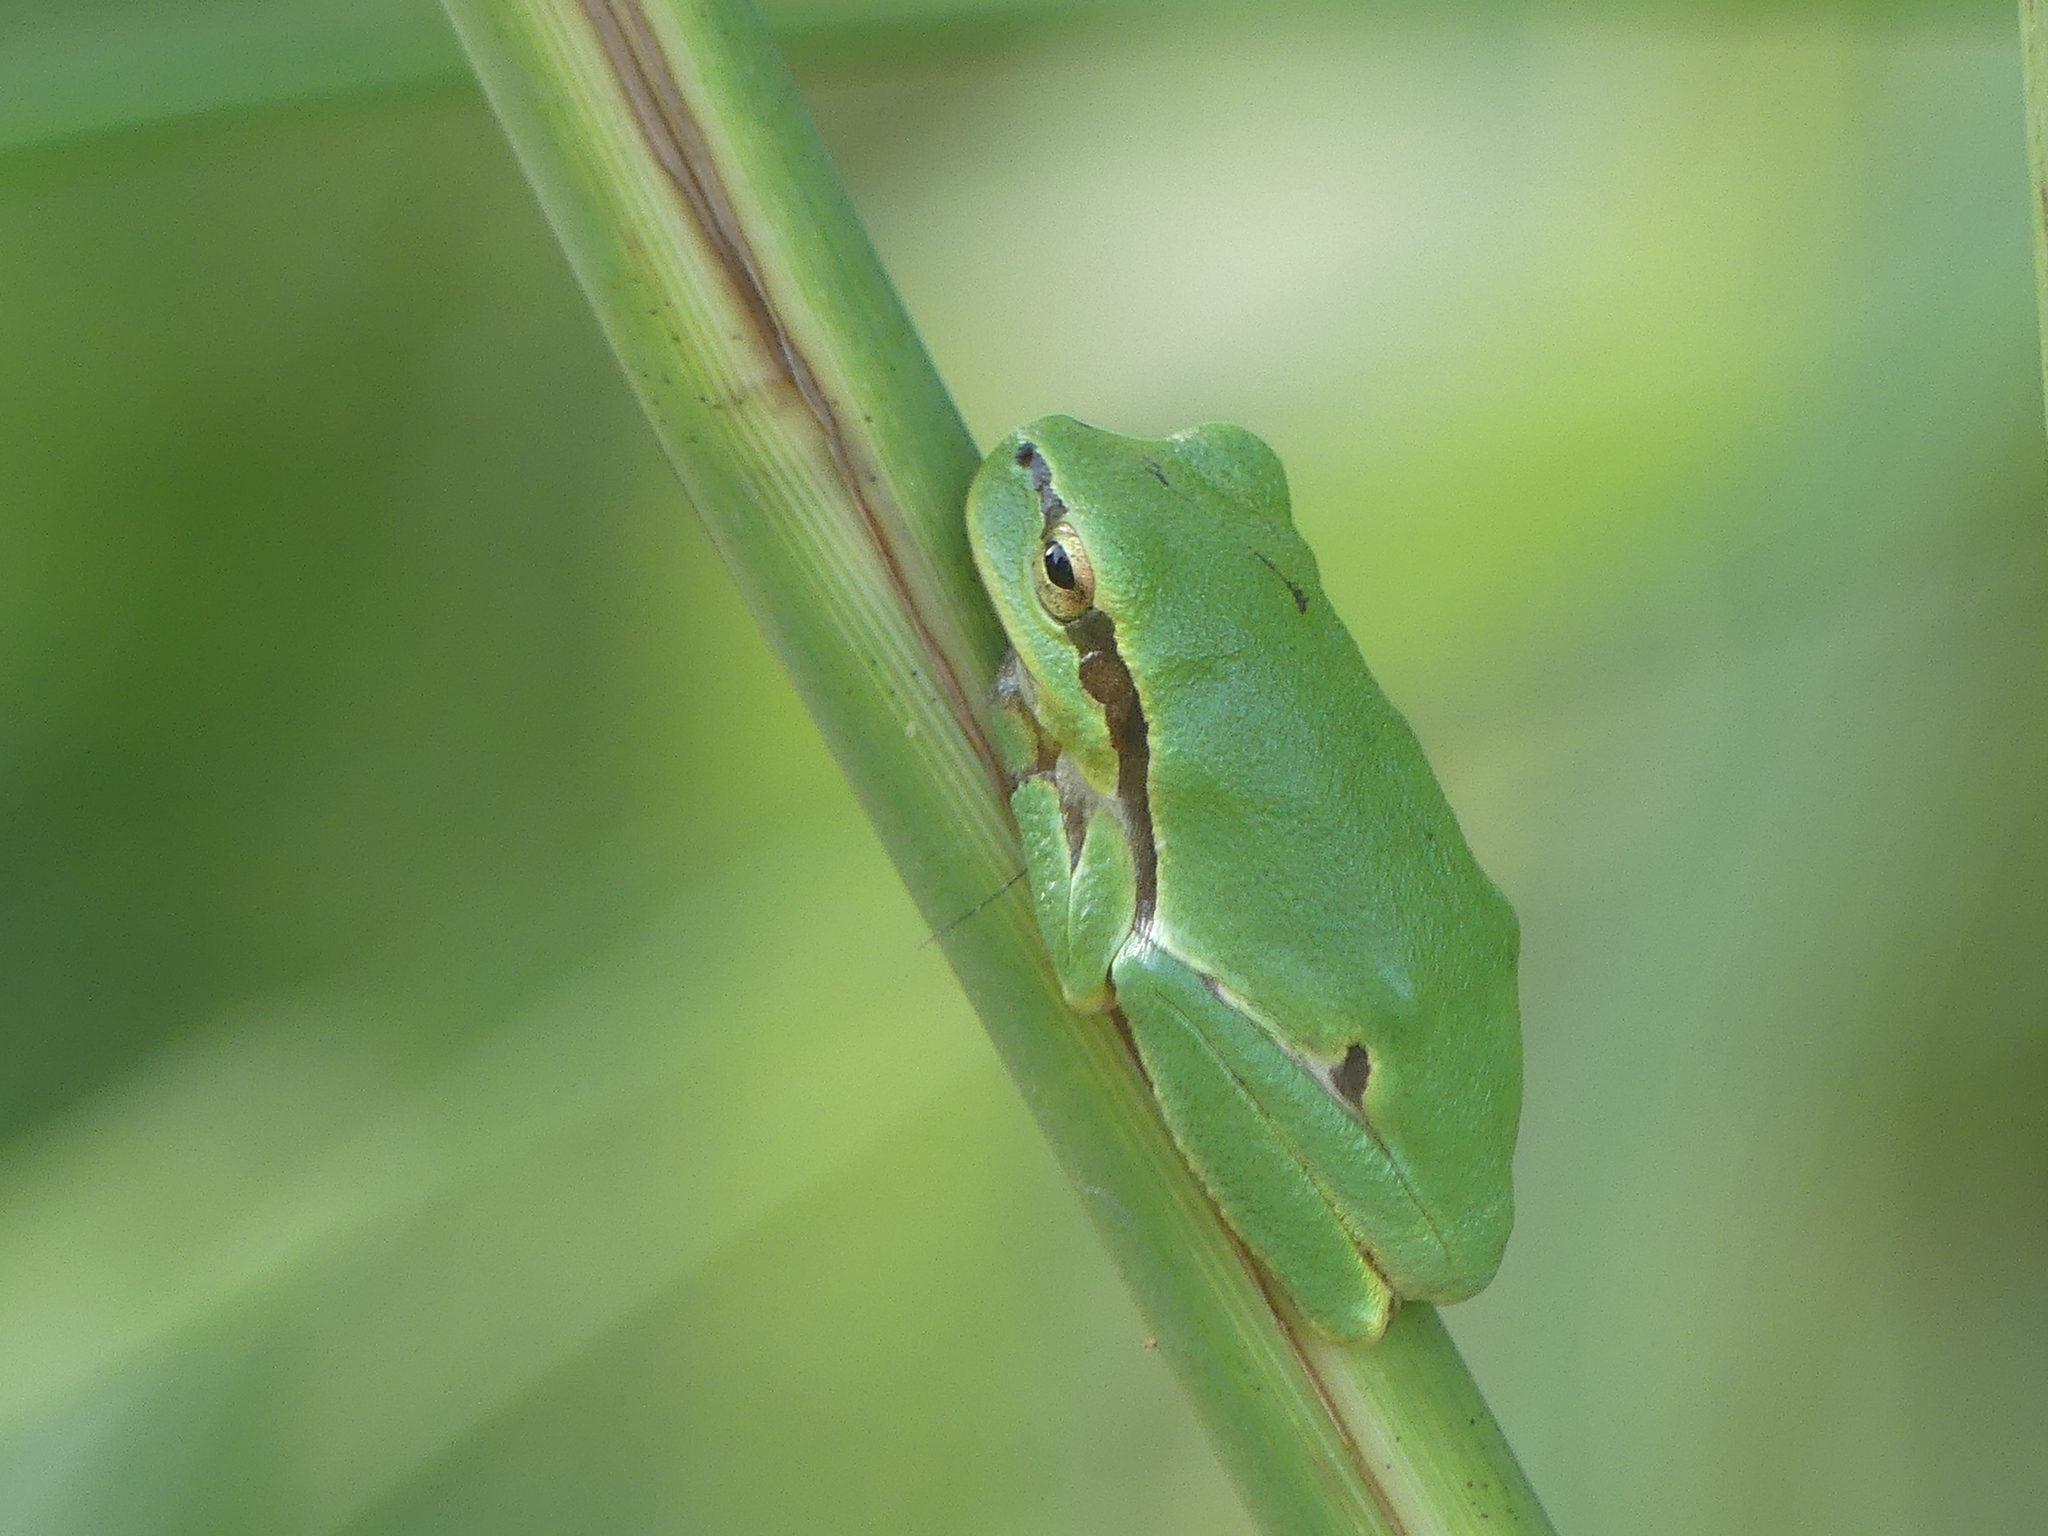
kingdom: Animalia
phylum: Chordata
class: Amphibia
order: Anura
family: Hylidae
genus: Hyla
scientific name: Hyla orientalis
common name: Caucasian treefrog
